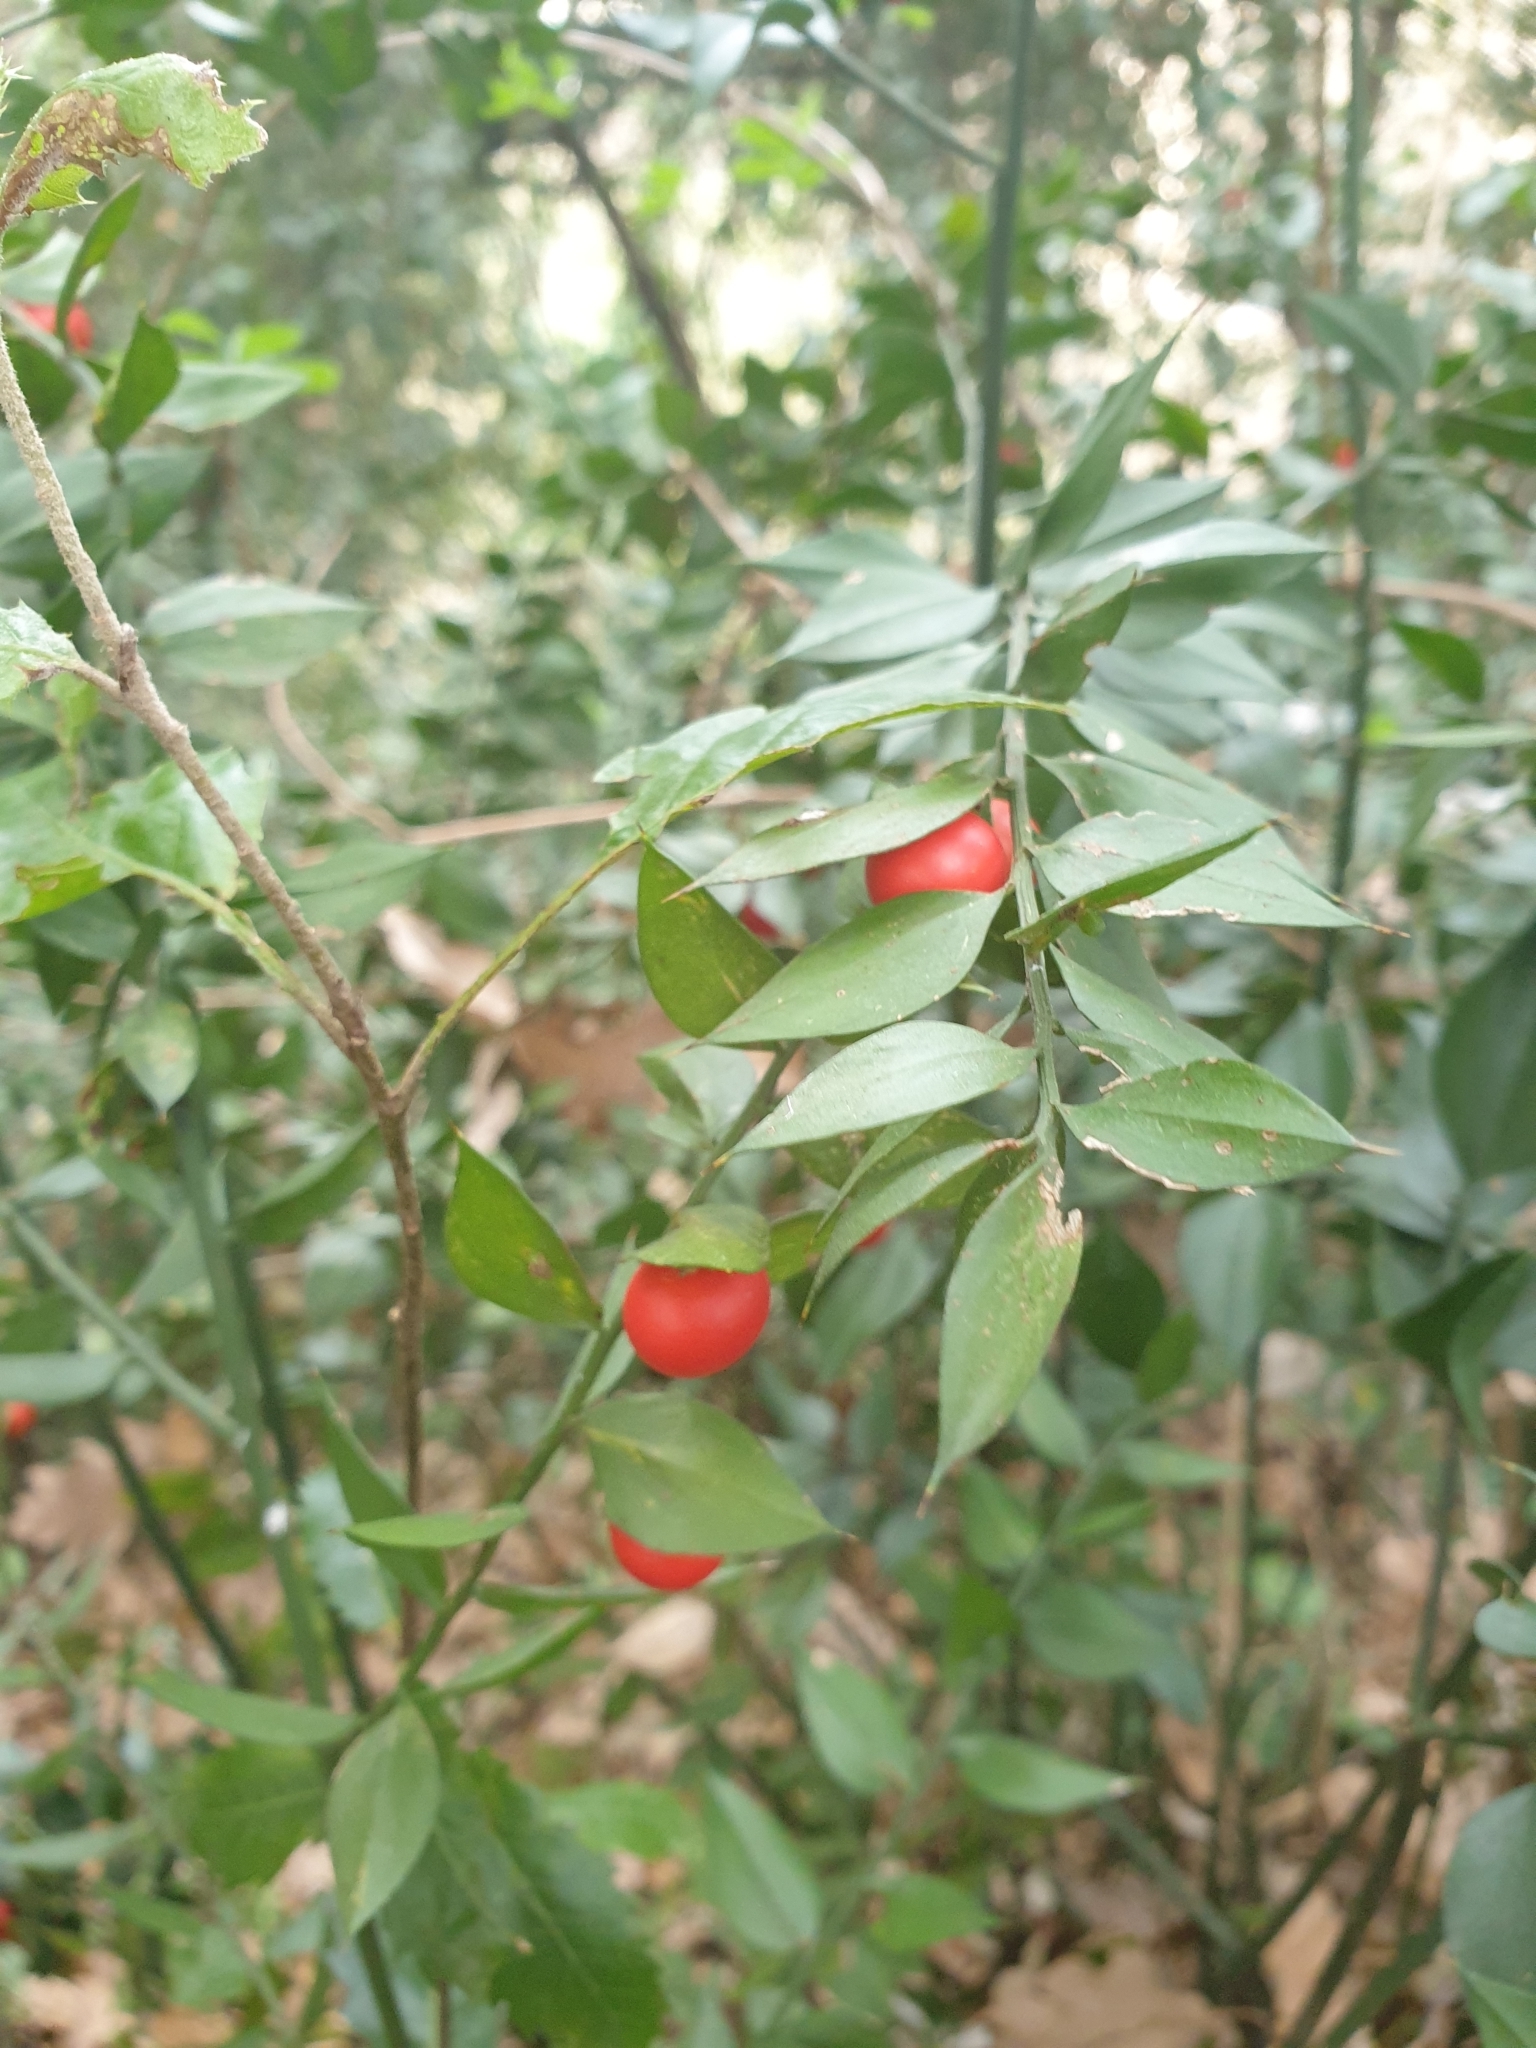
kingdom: Plantae
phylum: Tracheophyta
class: Liliopsida
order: Asparagales
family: Asparagaceae
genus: Ruscus
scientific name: Ruscus aculeatus
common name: Butcher's-broom
